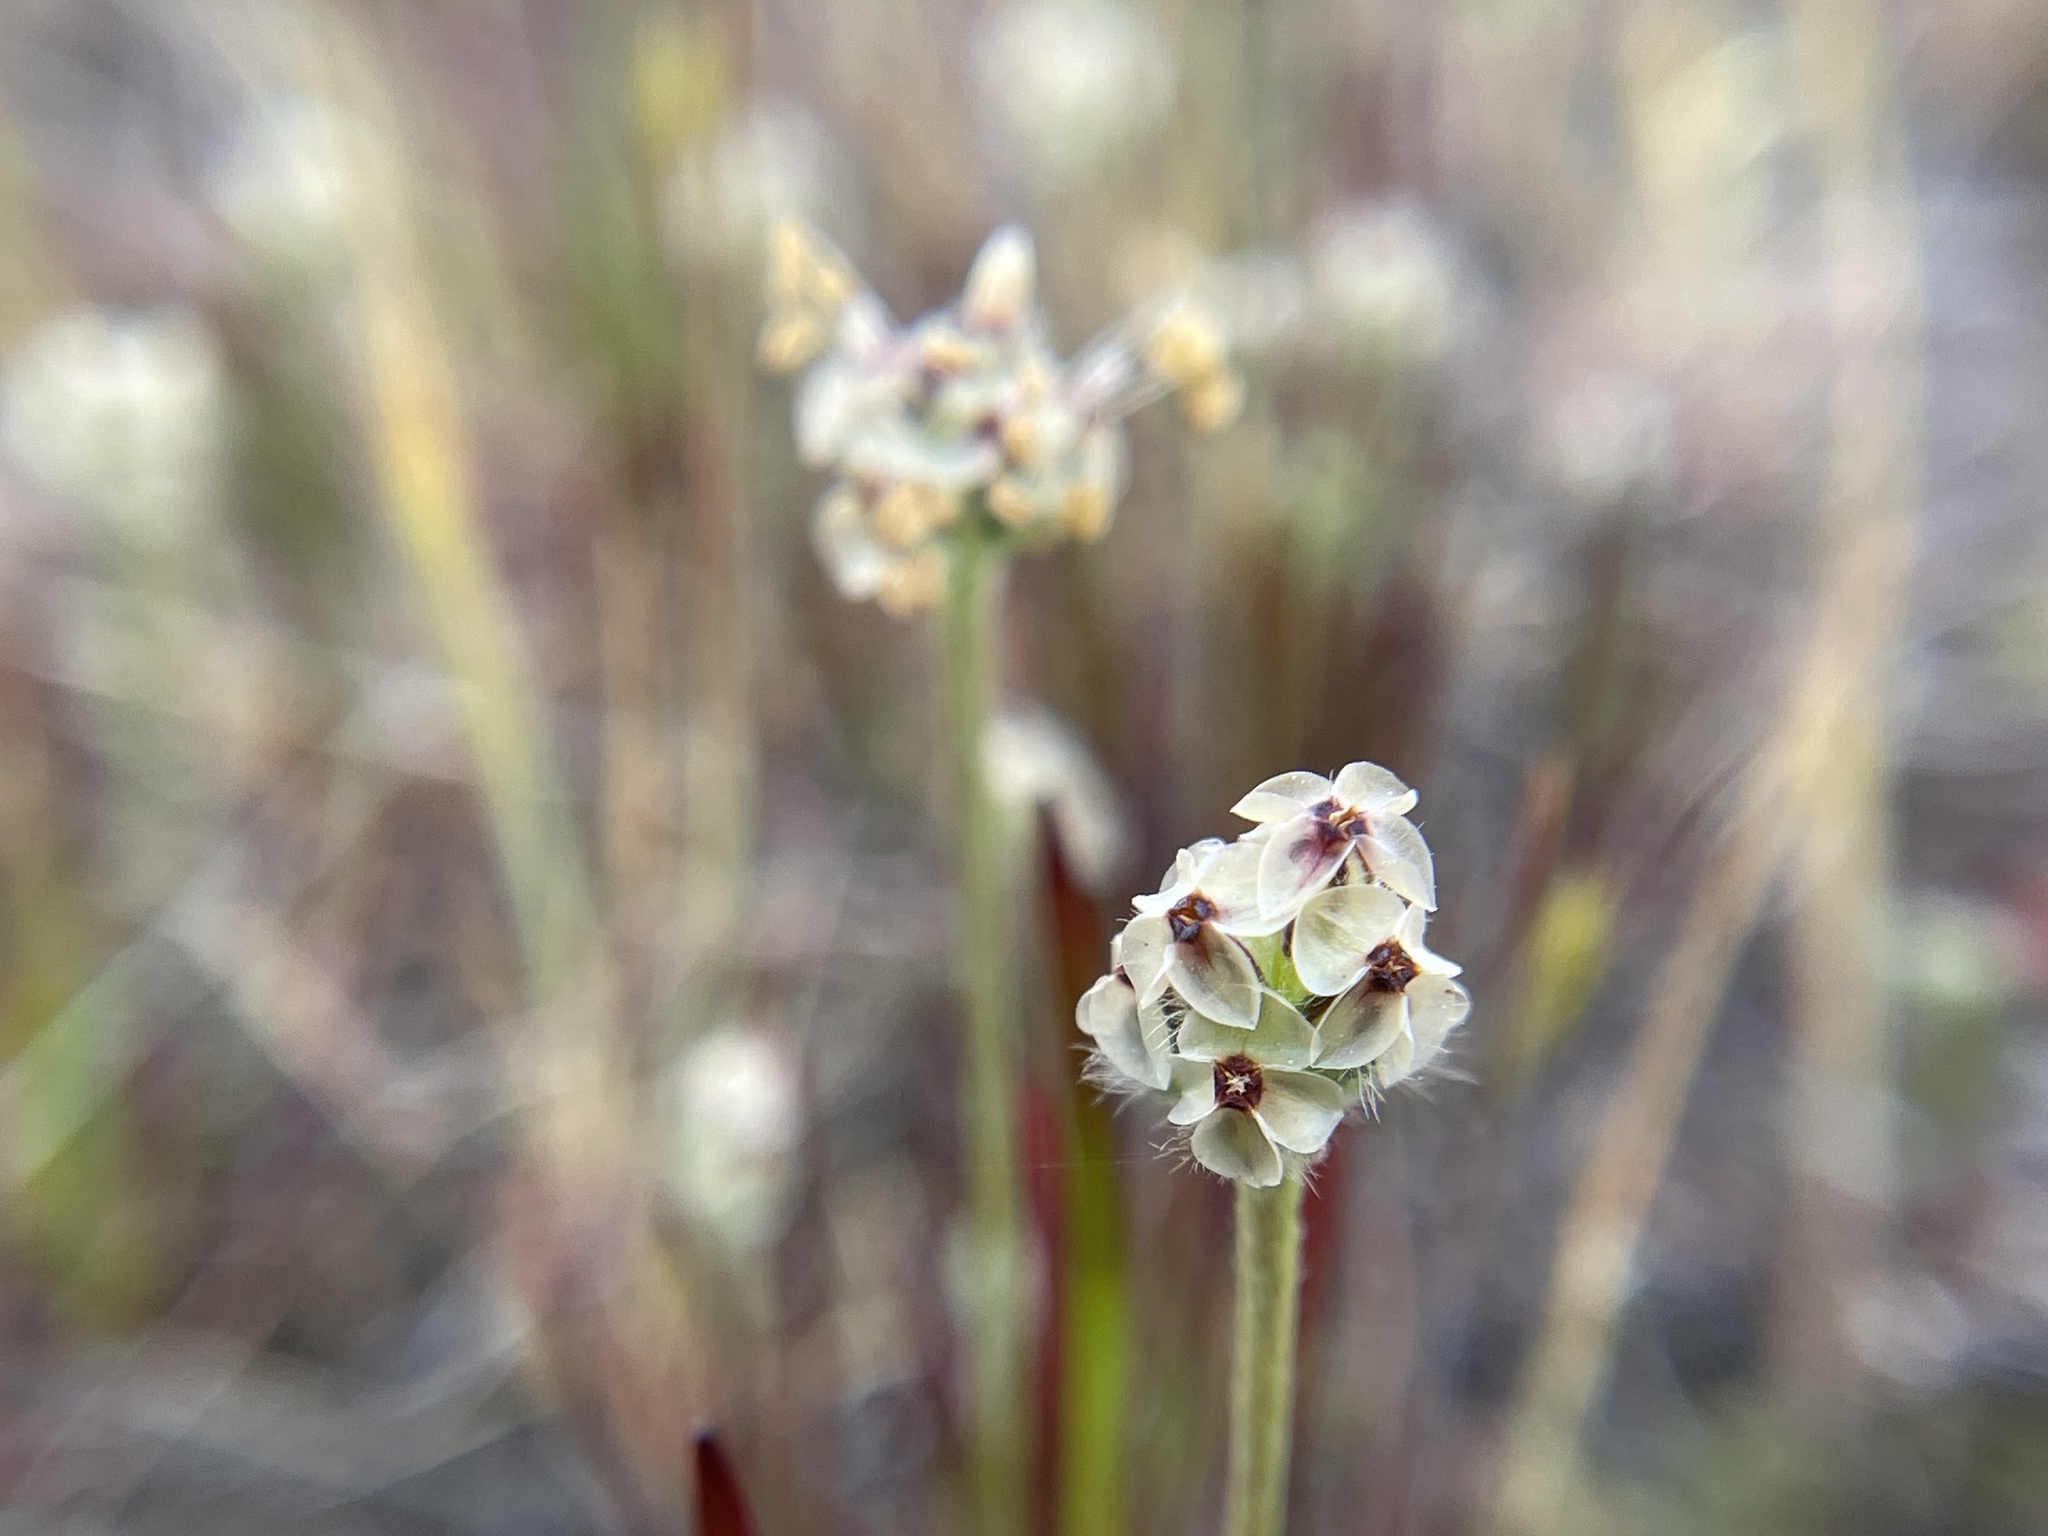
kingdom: Plantae
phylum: Tracheophyta
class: Magnoliopsida
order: Lamiales
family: Plantaginaceae
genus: Plantago
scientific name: Plantago erecta
